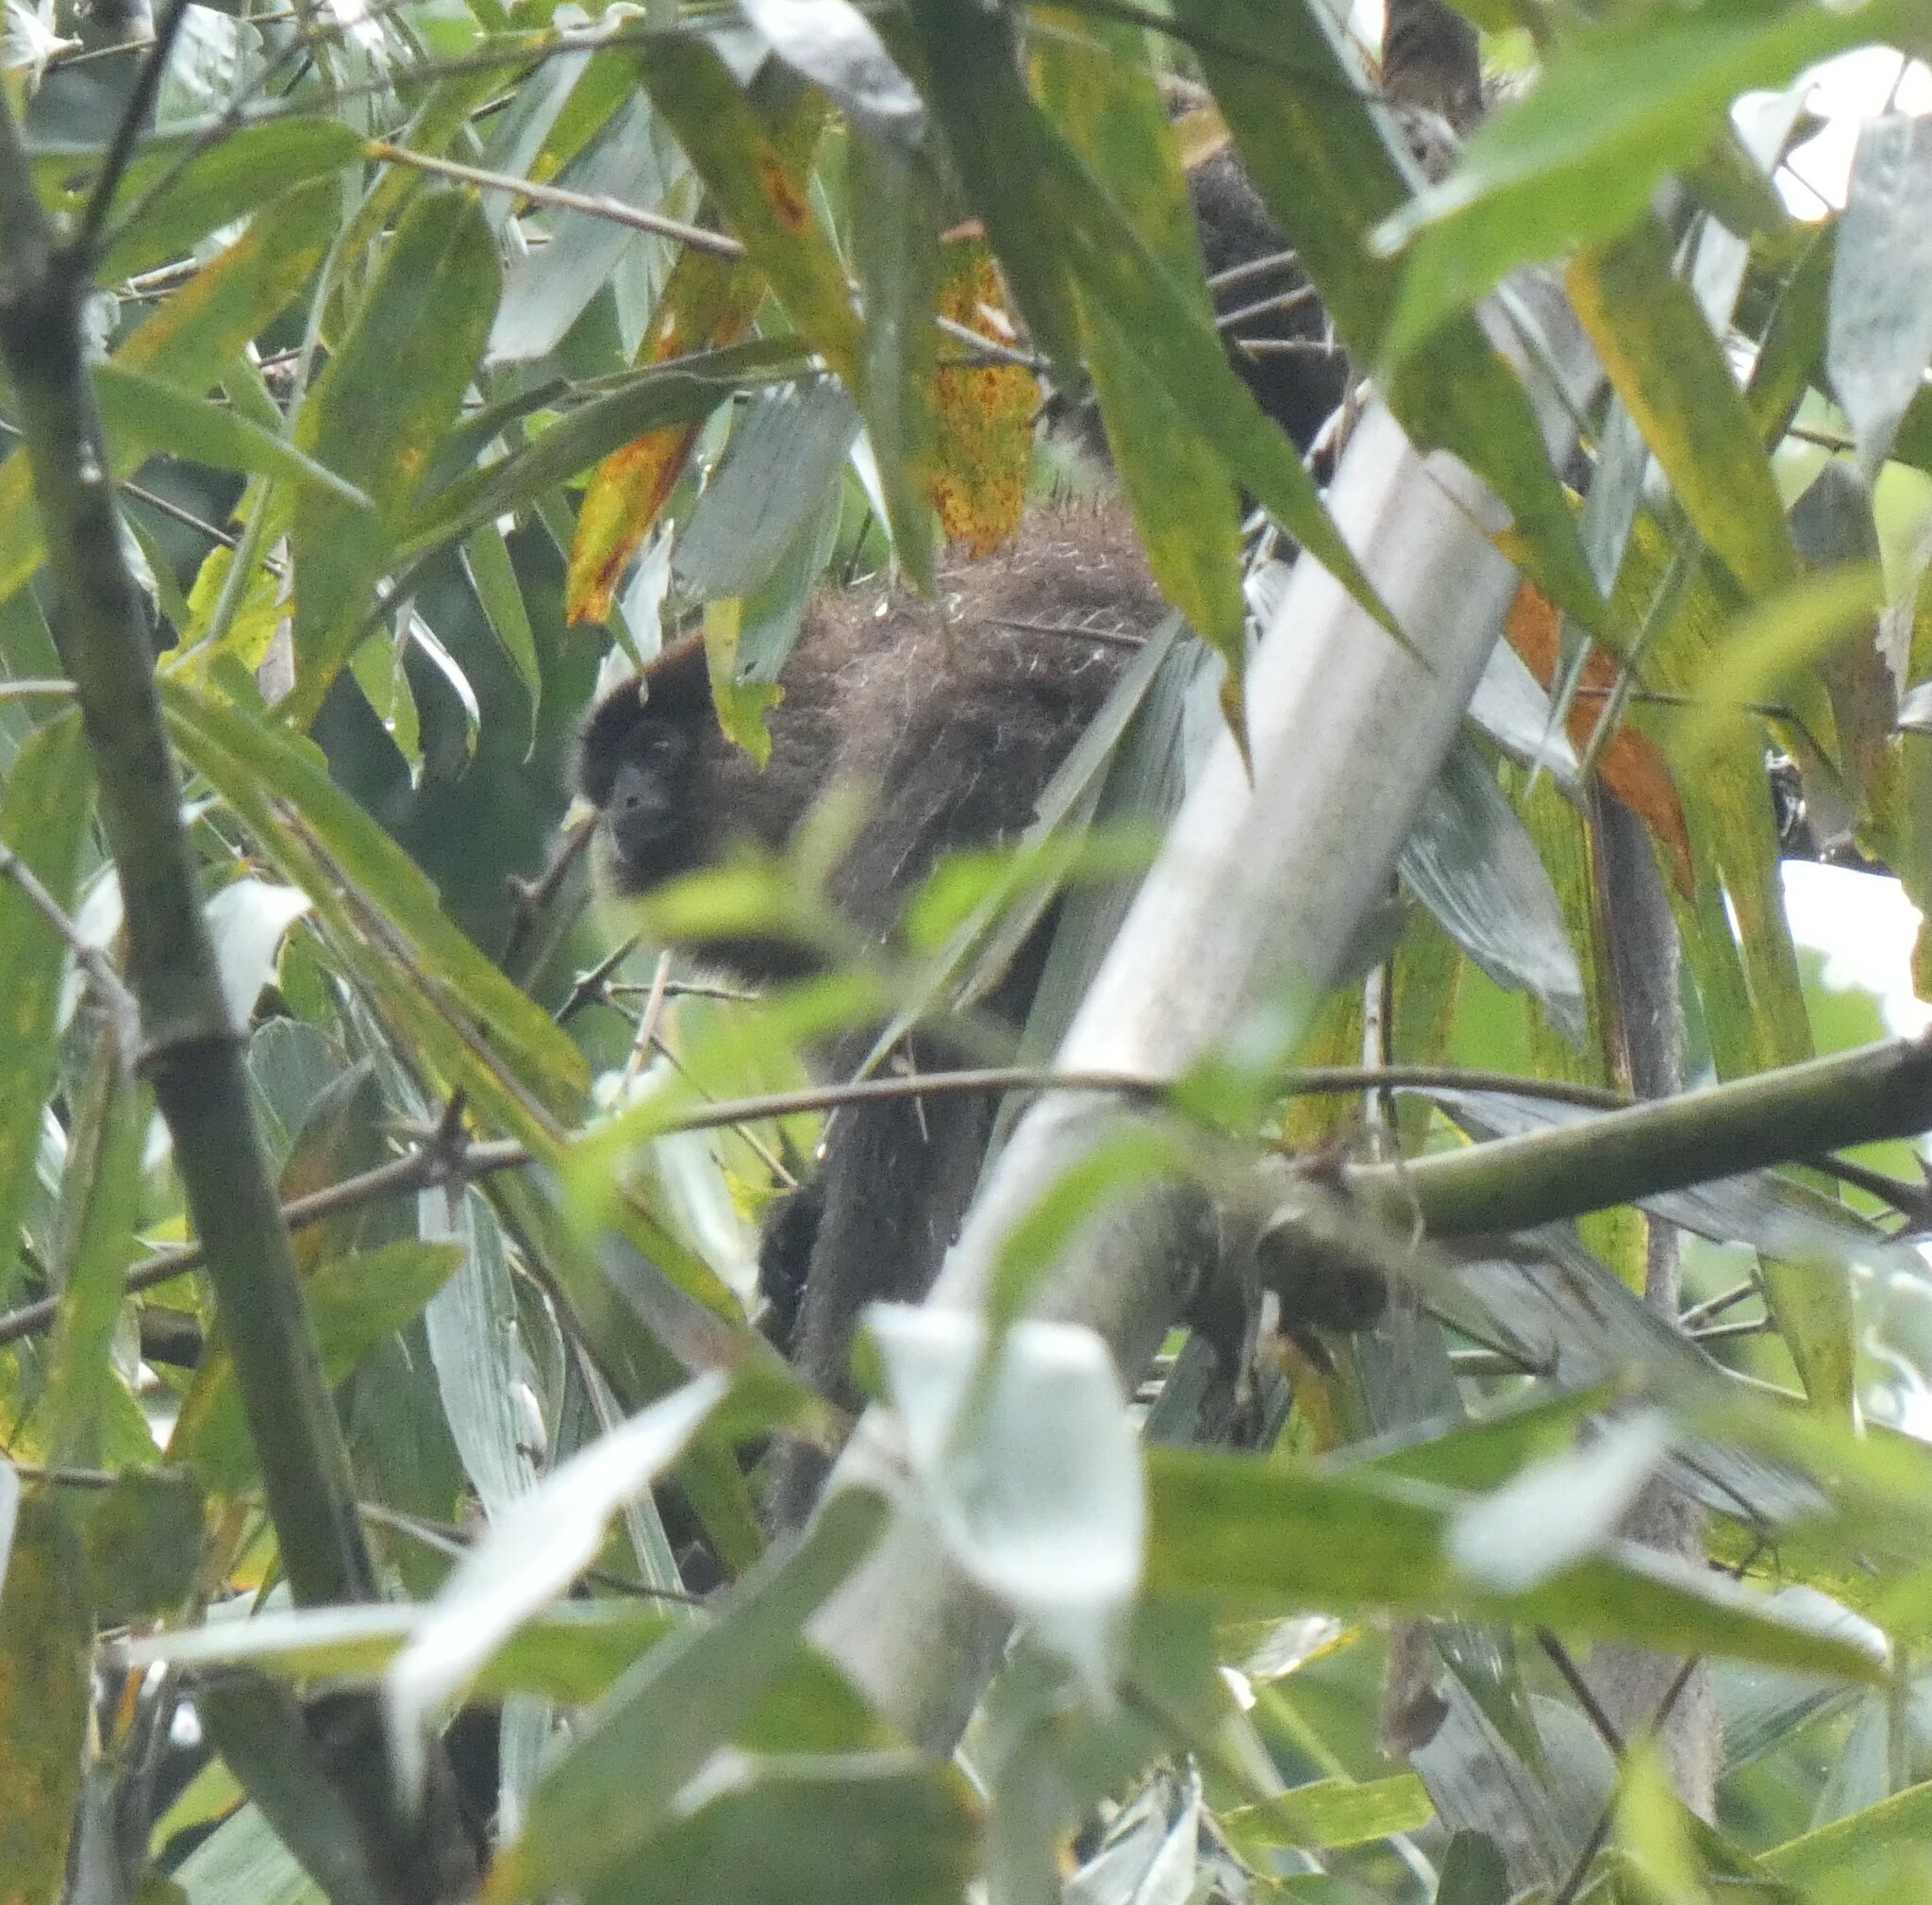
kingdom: Animalia
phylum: Chordata
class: Mammalia
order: Primates
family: Pitheciidae
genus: Plecturocebus
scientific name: Plecturocebus toppini
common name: Toppin's titi
